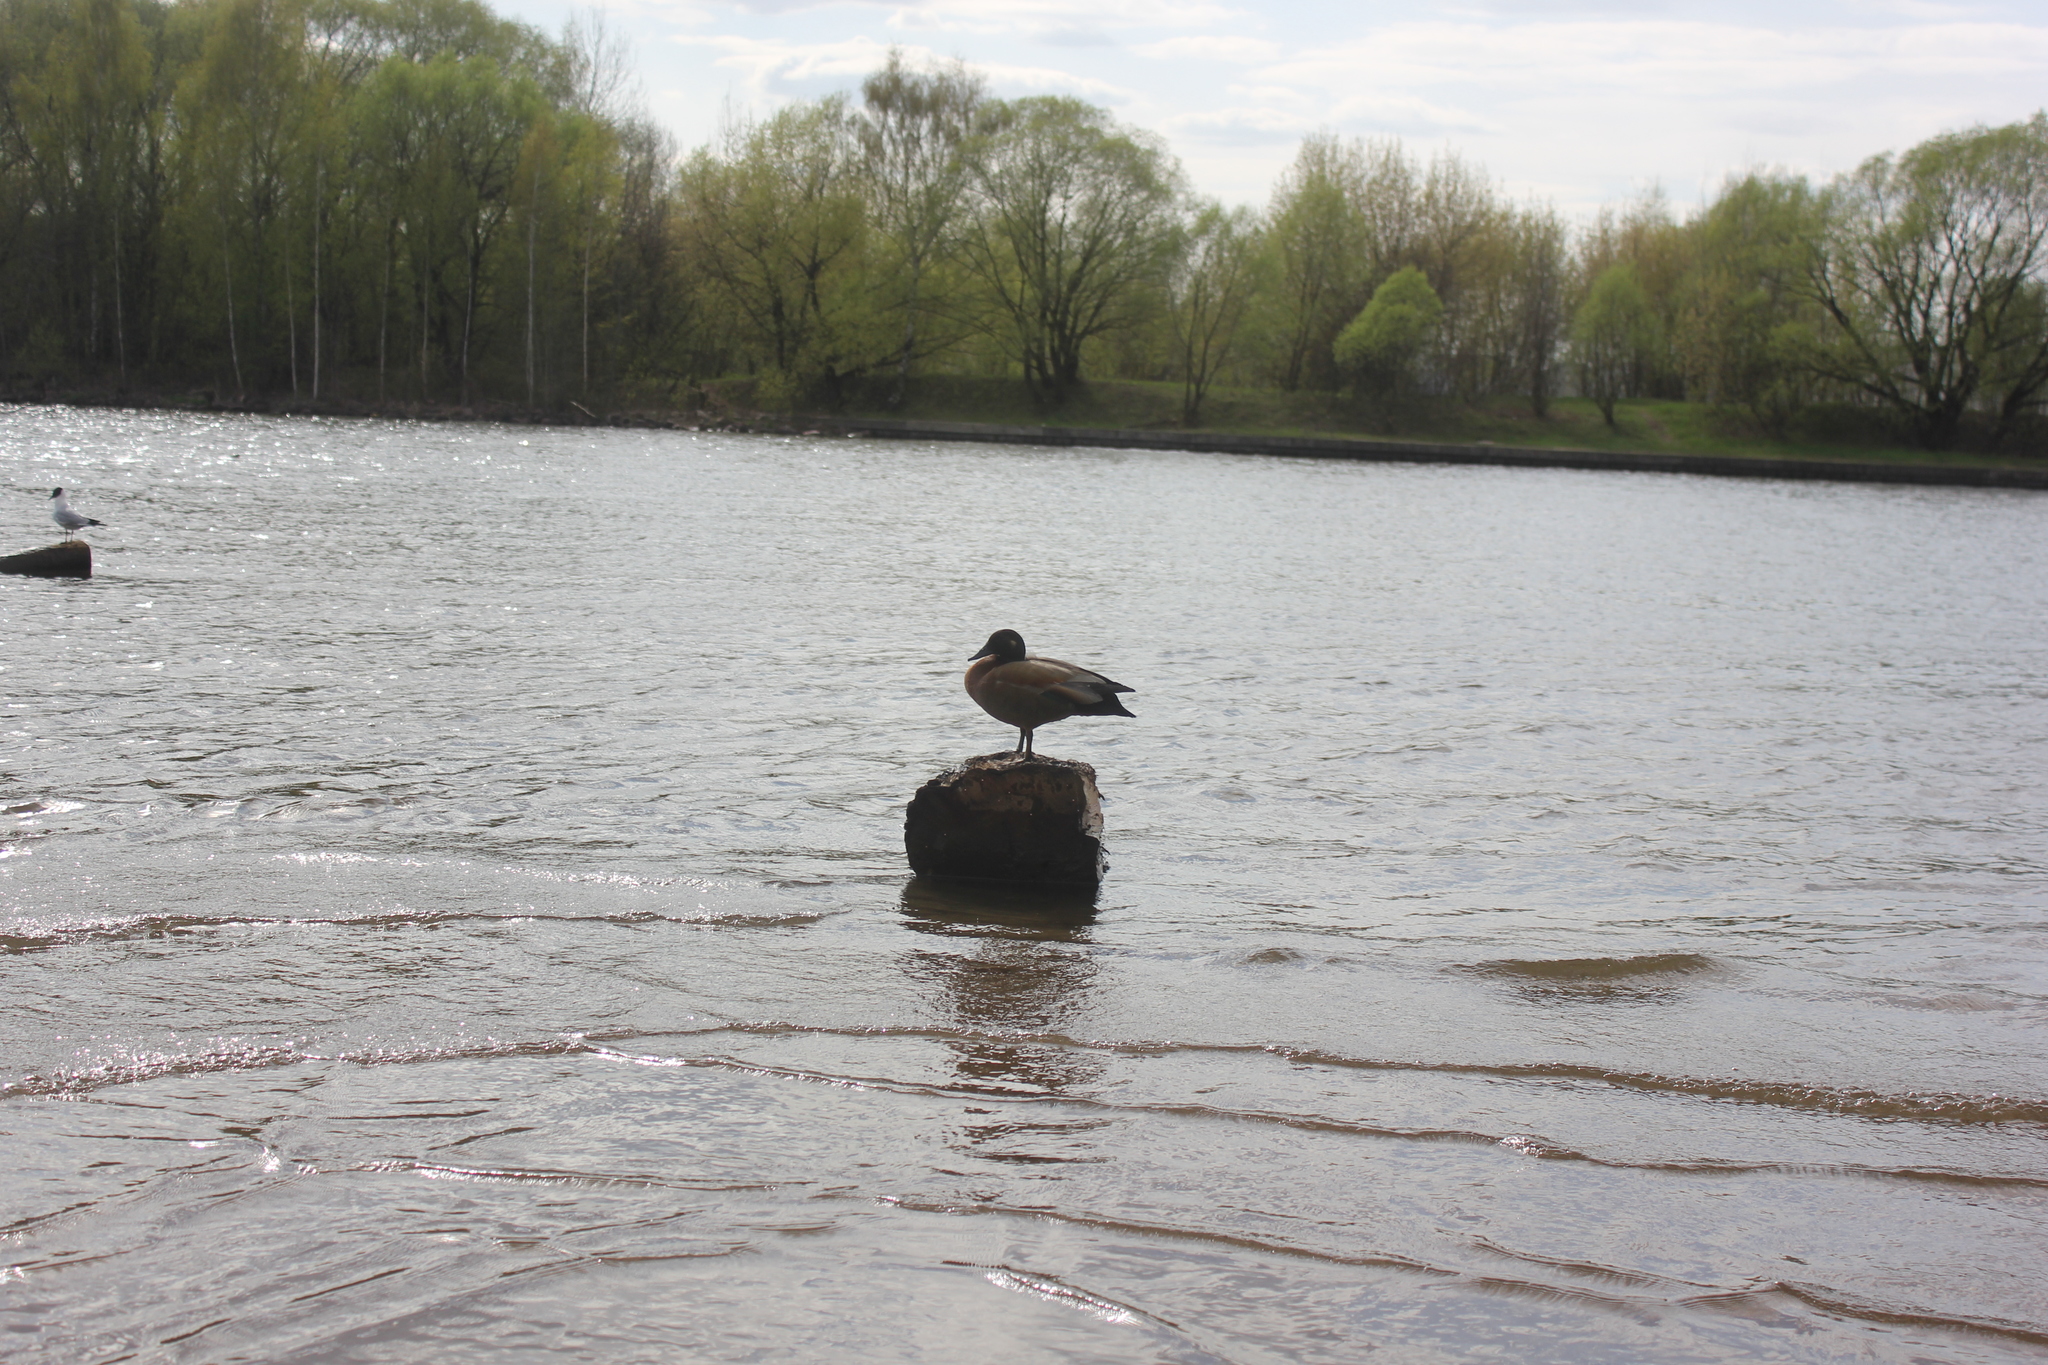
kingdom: Animalia
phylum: Chordata
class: Aves
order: Anseriformes
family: Anatidae
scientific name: Anatidae
